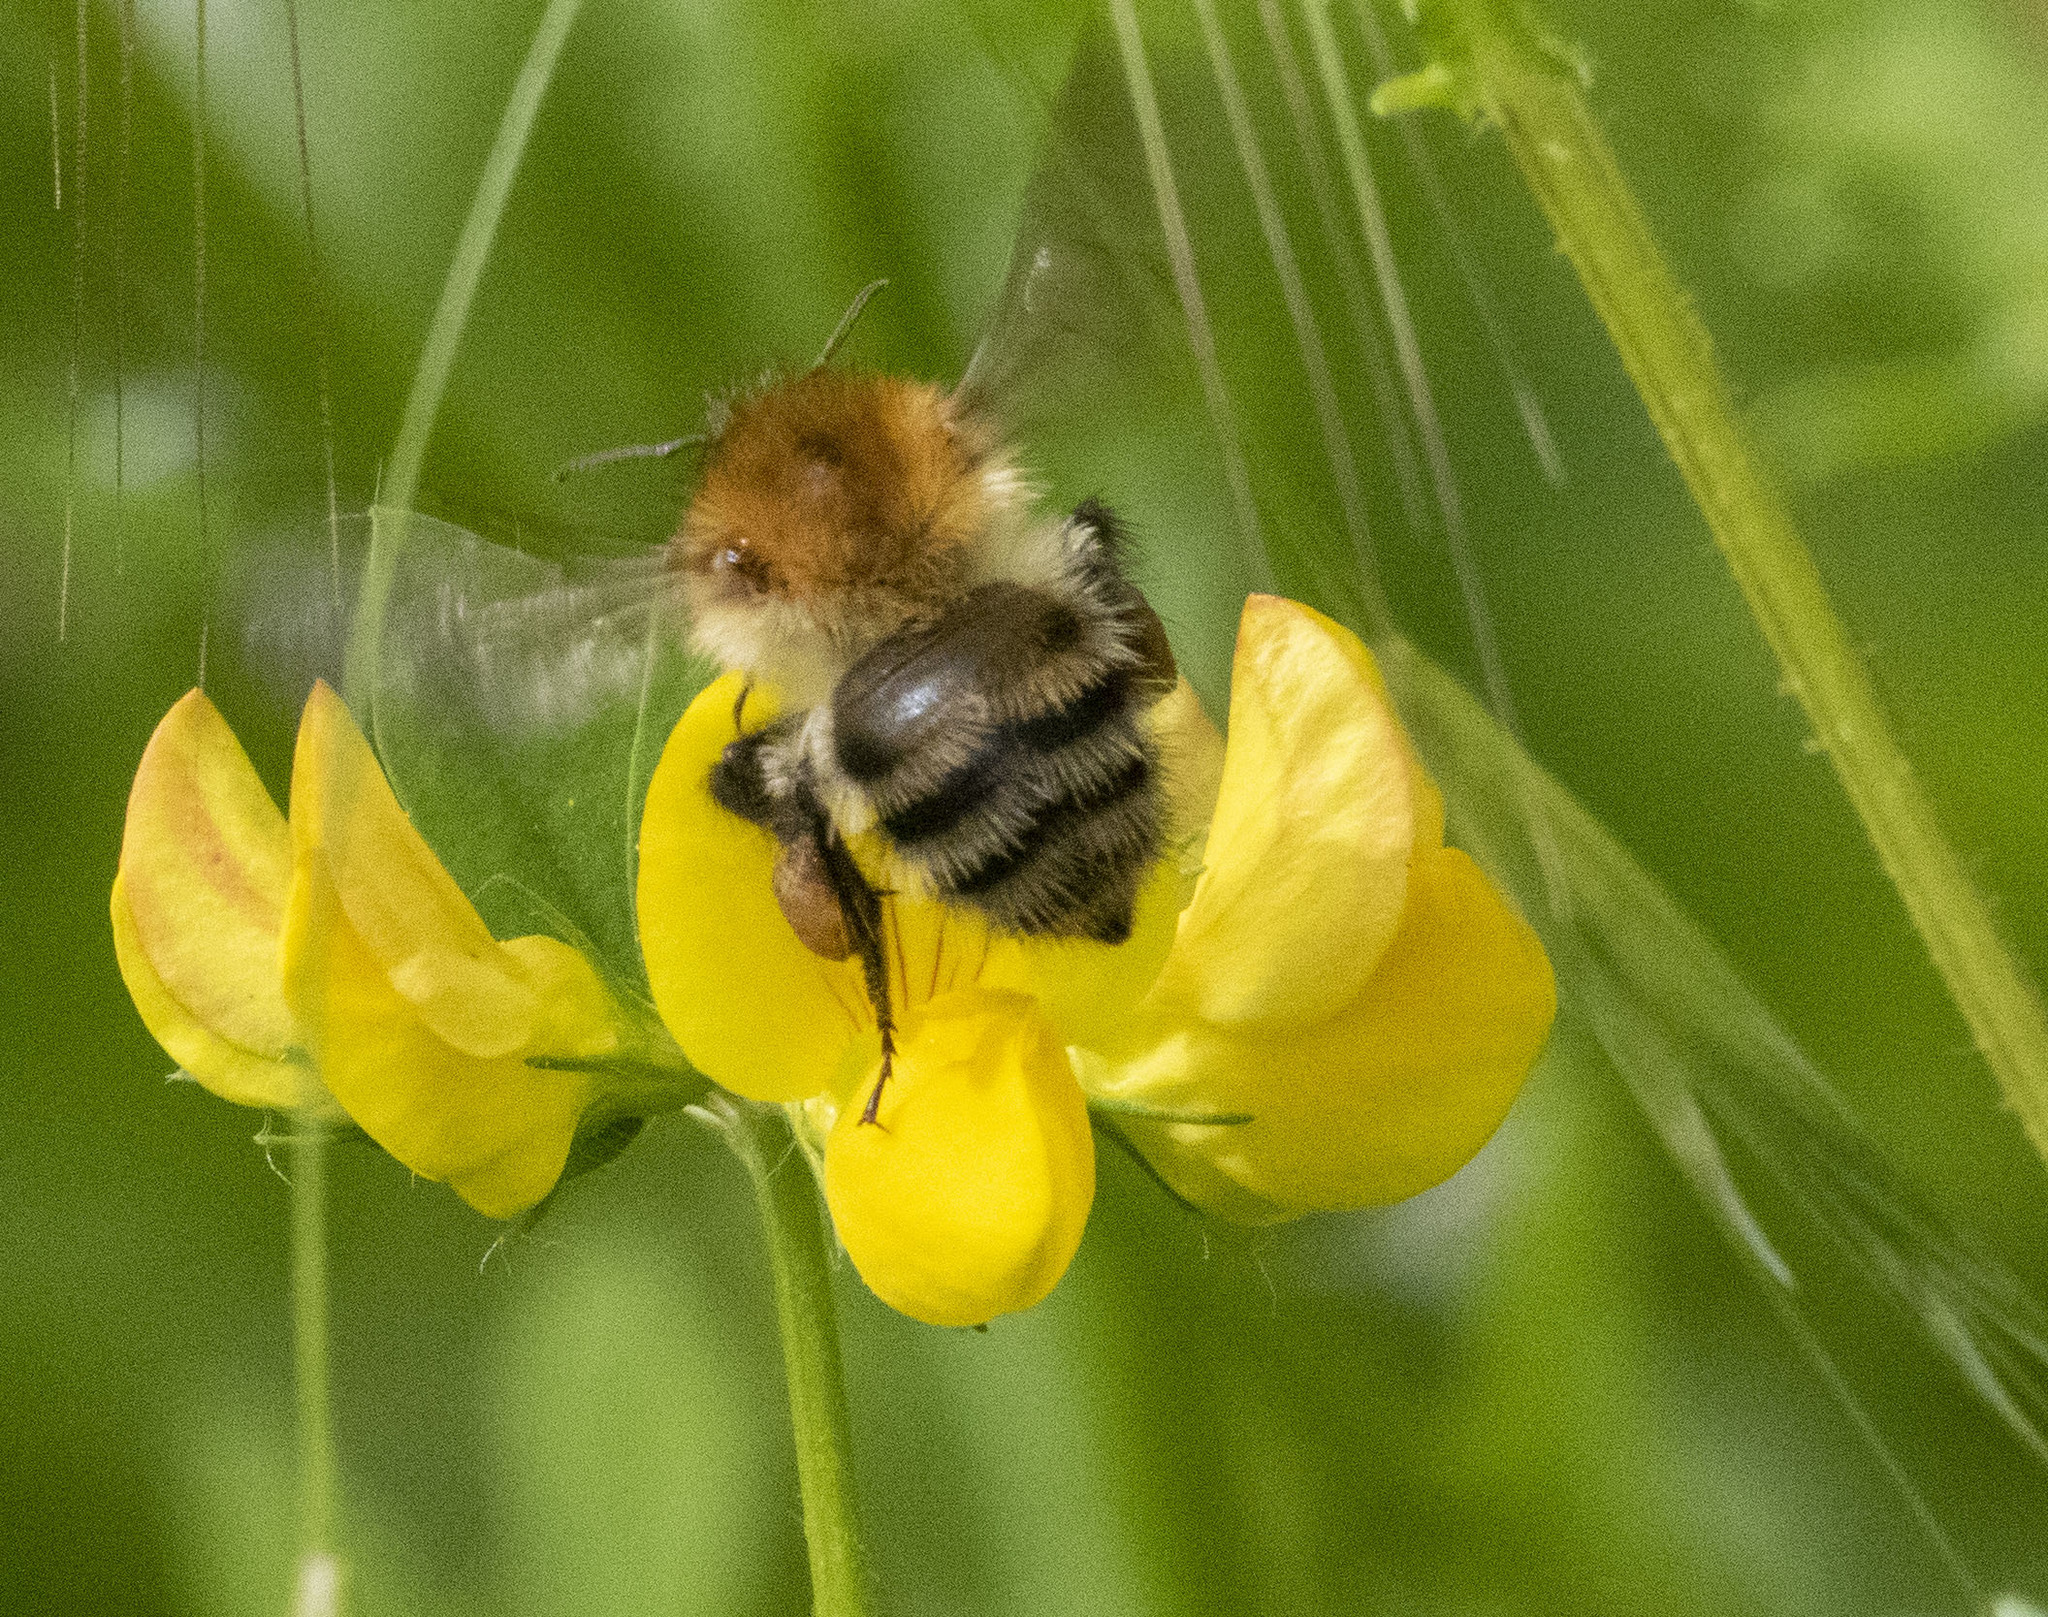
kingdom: Animalia
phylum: Arthropoda
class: Insecta
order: Hymenoptera
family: Apidae
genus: Bombus
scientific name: Bombus pascuorum
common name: Common carder bee
